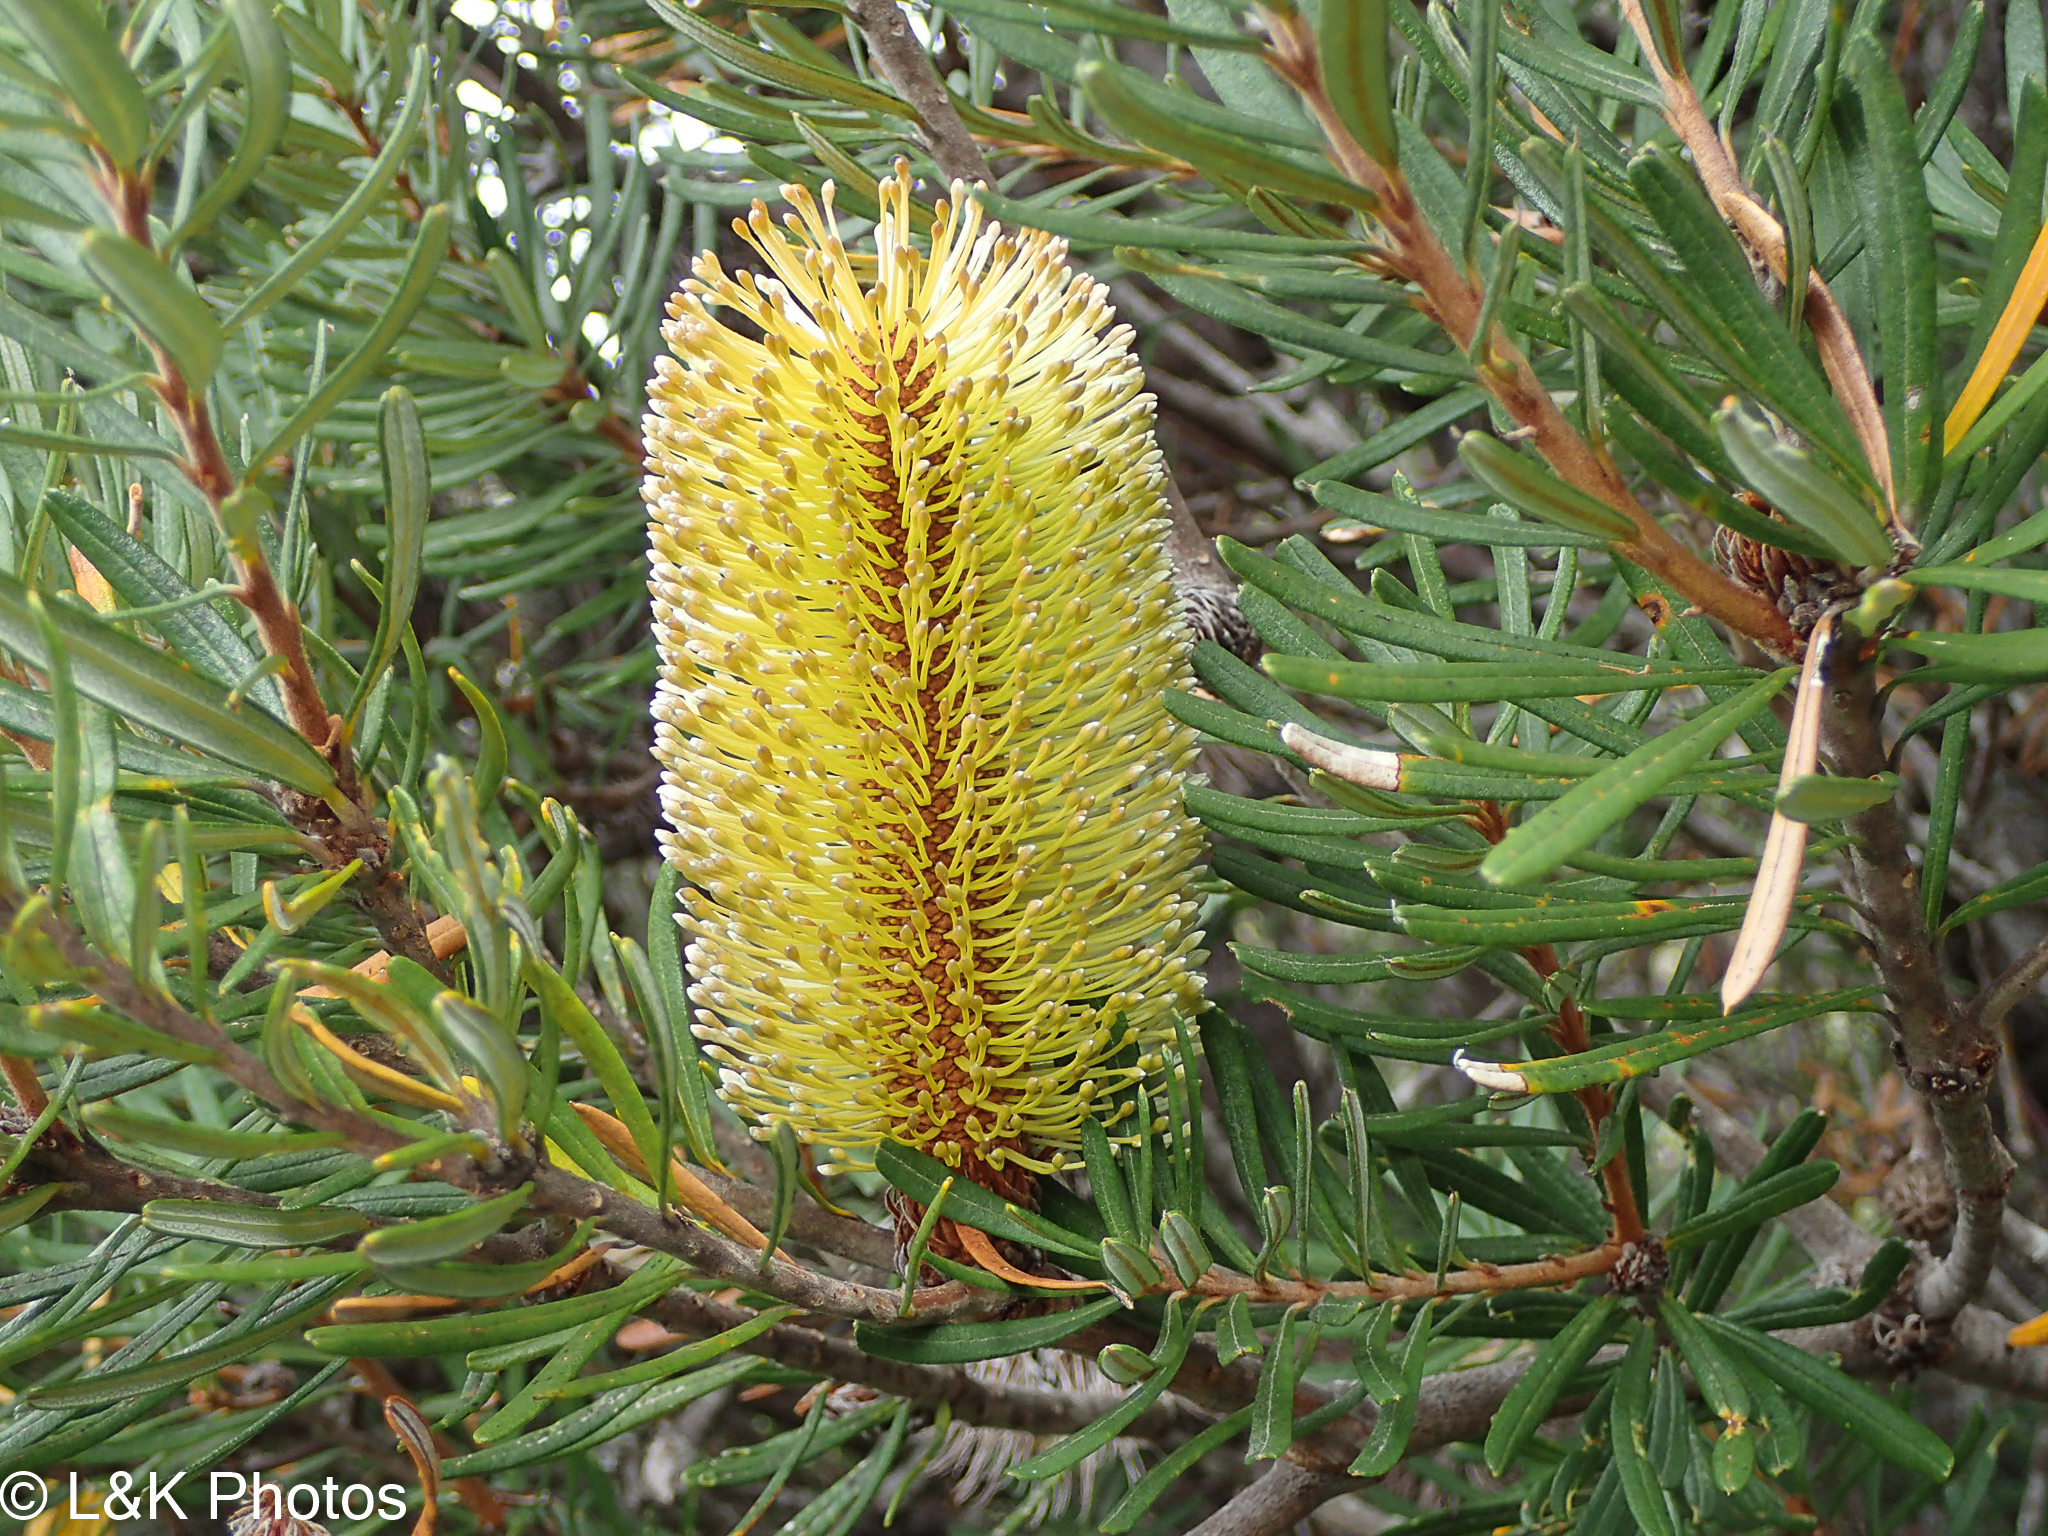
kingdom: Plantae
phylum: Tracheophyta
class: Magnoliopsida
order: Proteales
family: Proteaceae
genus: Banksia
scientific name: Banksia marginata
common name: Silver banksia
